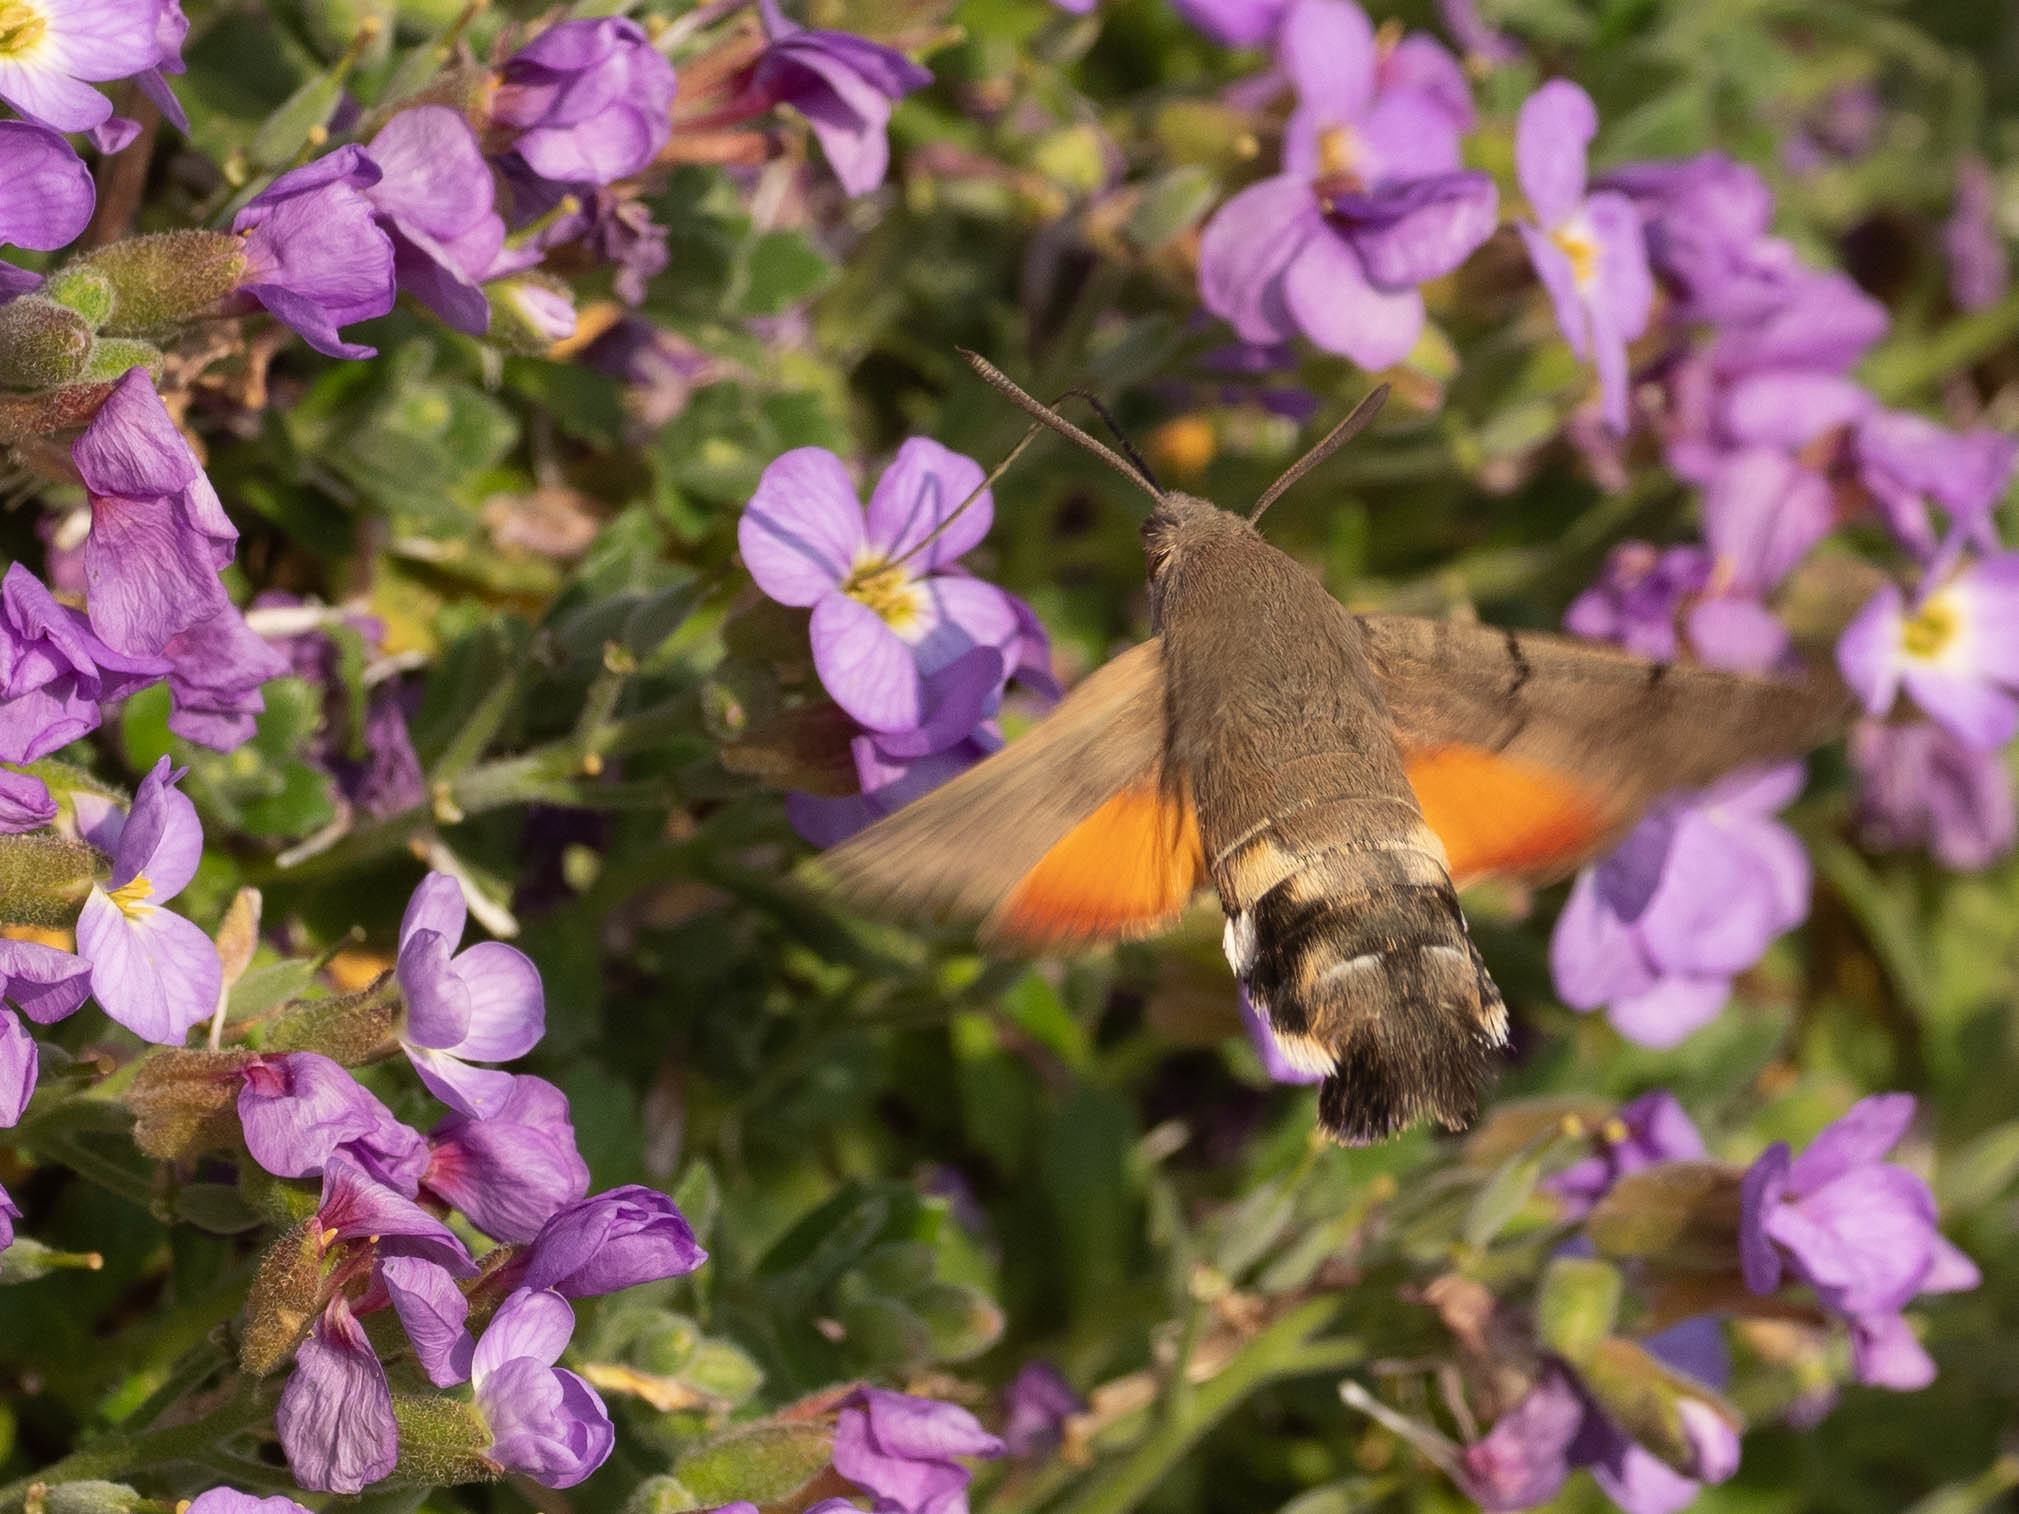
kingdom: Animalia
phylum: Arthropoda
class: Insecta
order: Lepidoptera
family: Sphingidae
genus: Macroglossum
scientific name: Macroglossum stellatarum
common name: Humming-bird hawk-moth
